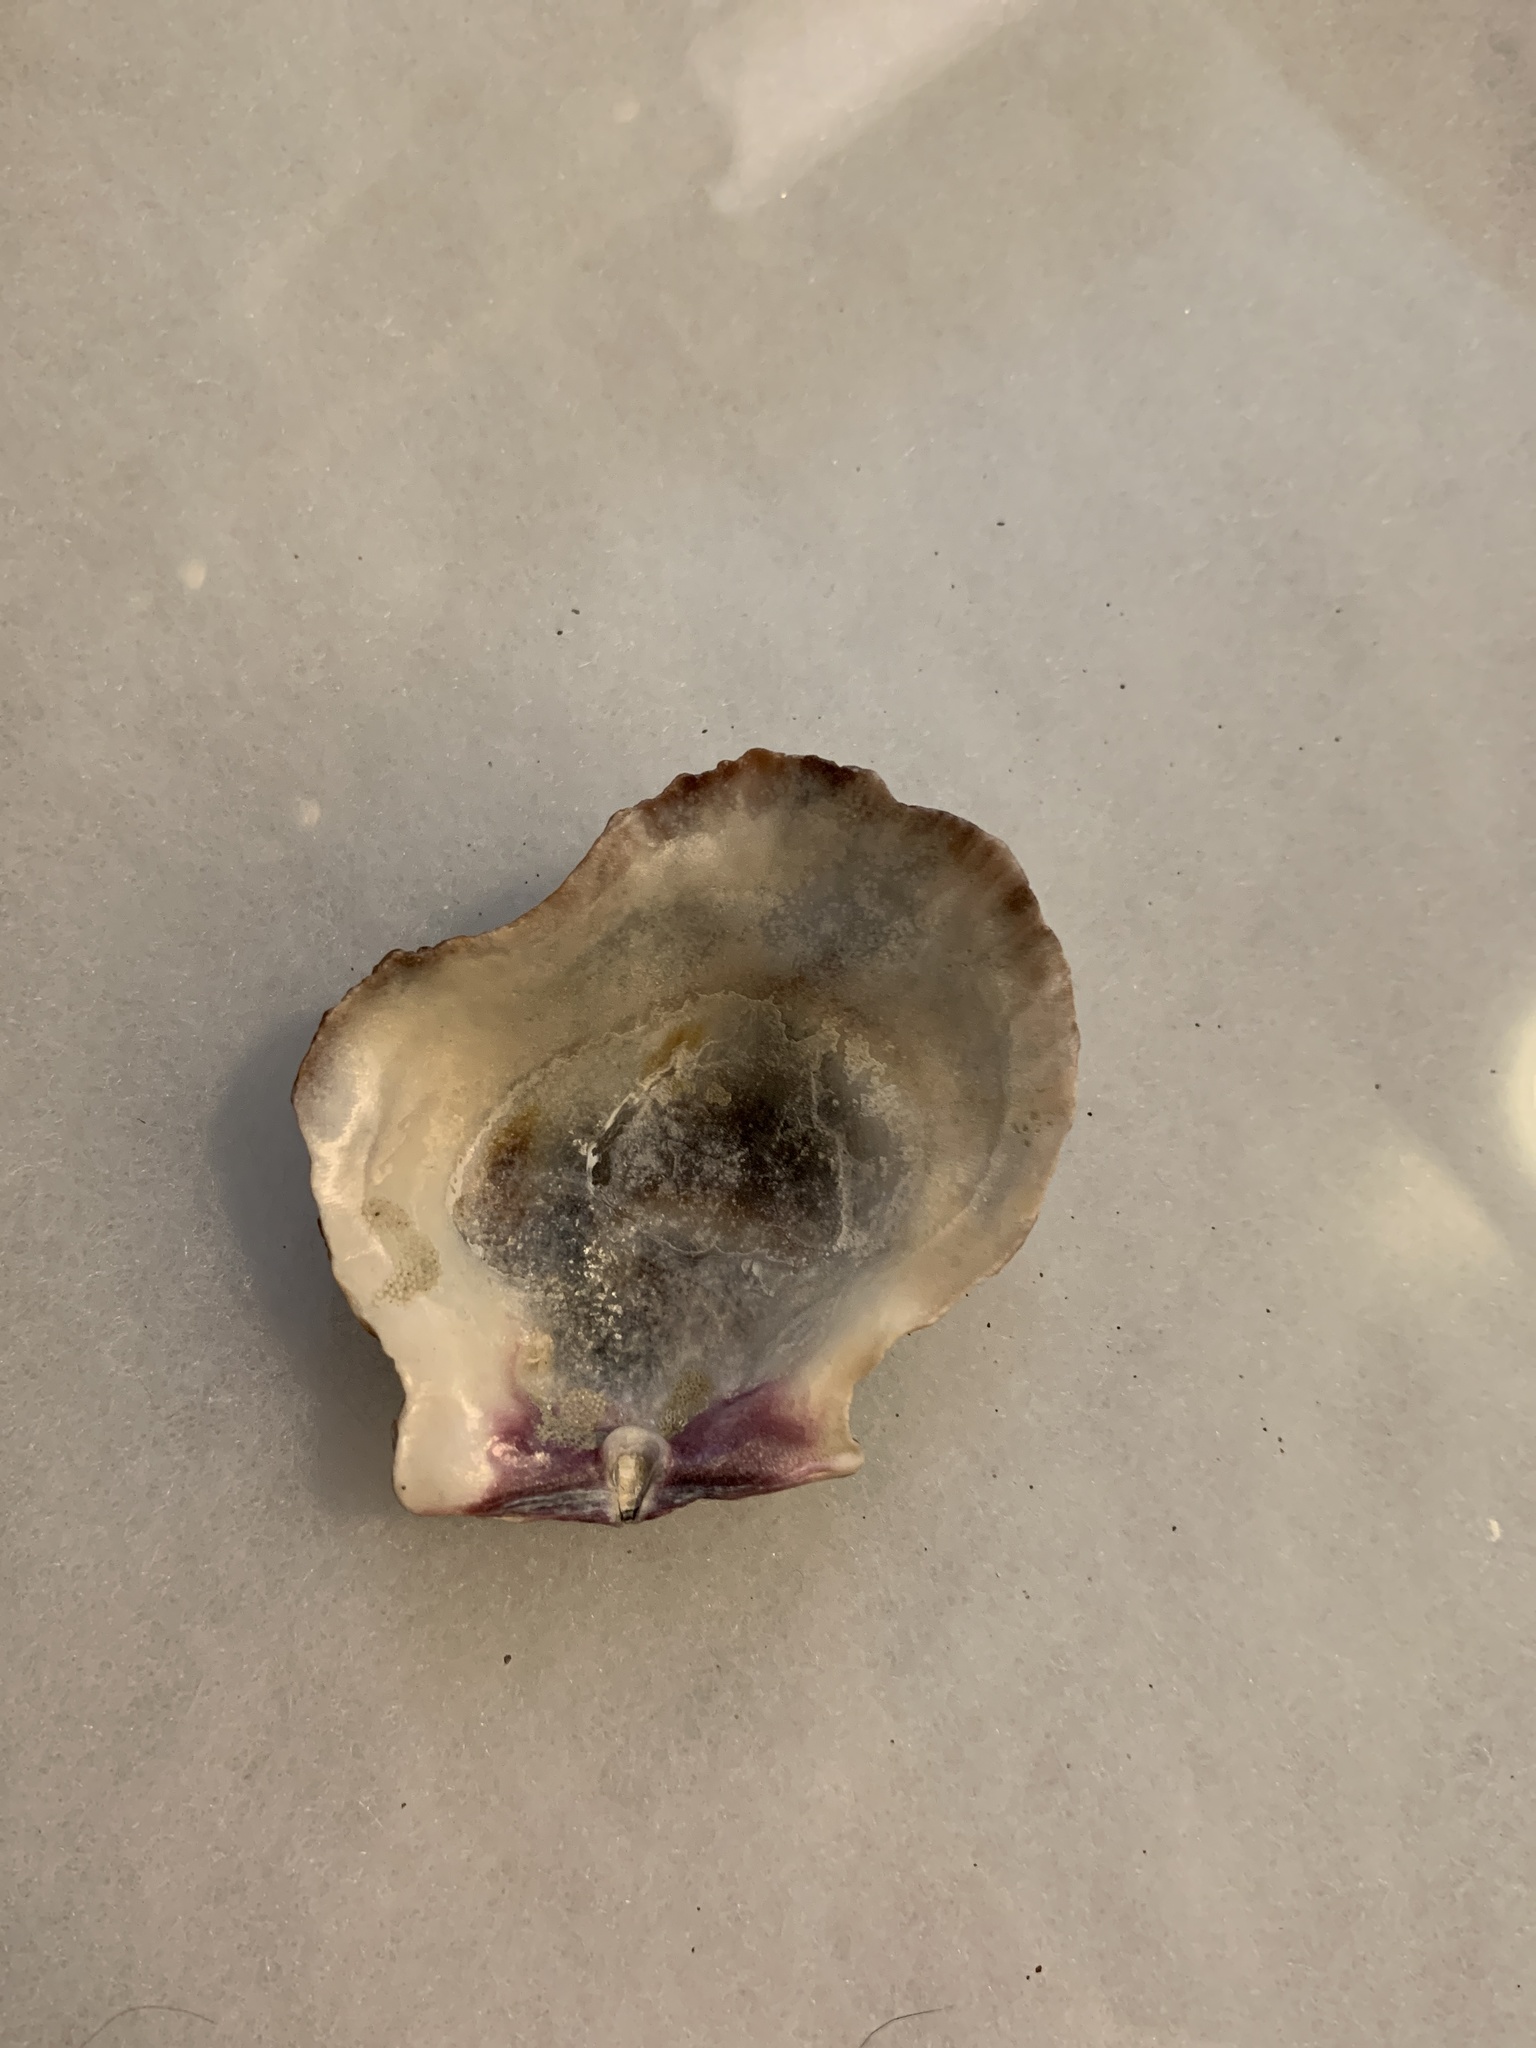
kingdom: Animalia
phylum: Mollusca
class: Bivalvia
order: Pectinida
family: Pectinidae
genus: Crassadoma
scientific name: Crassadoma gigantea
